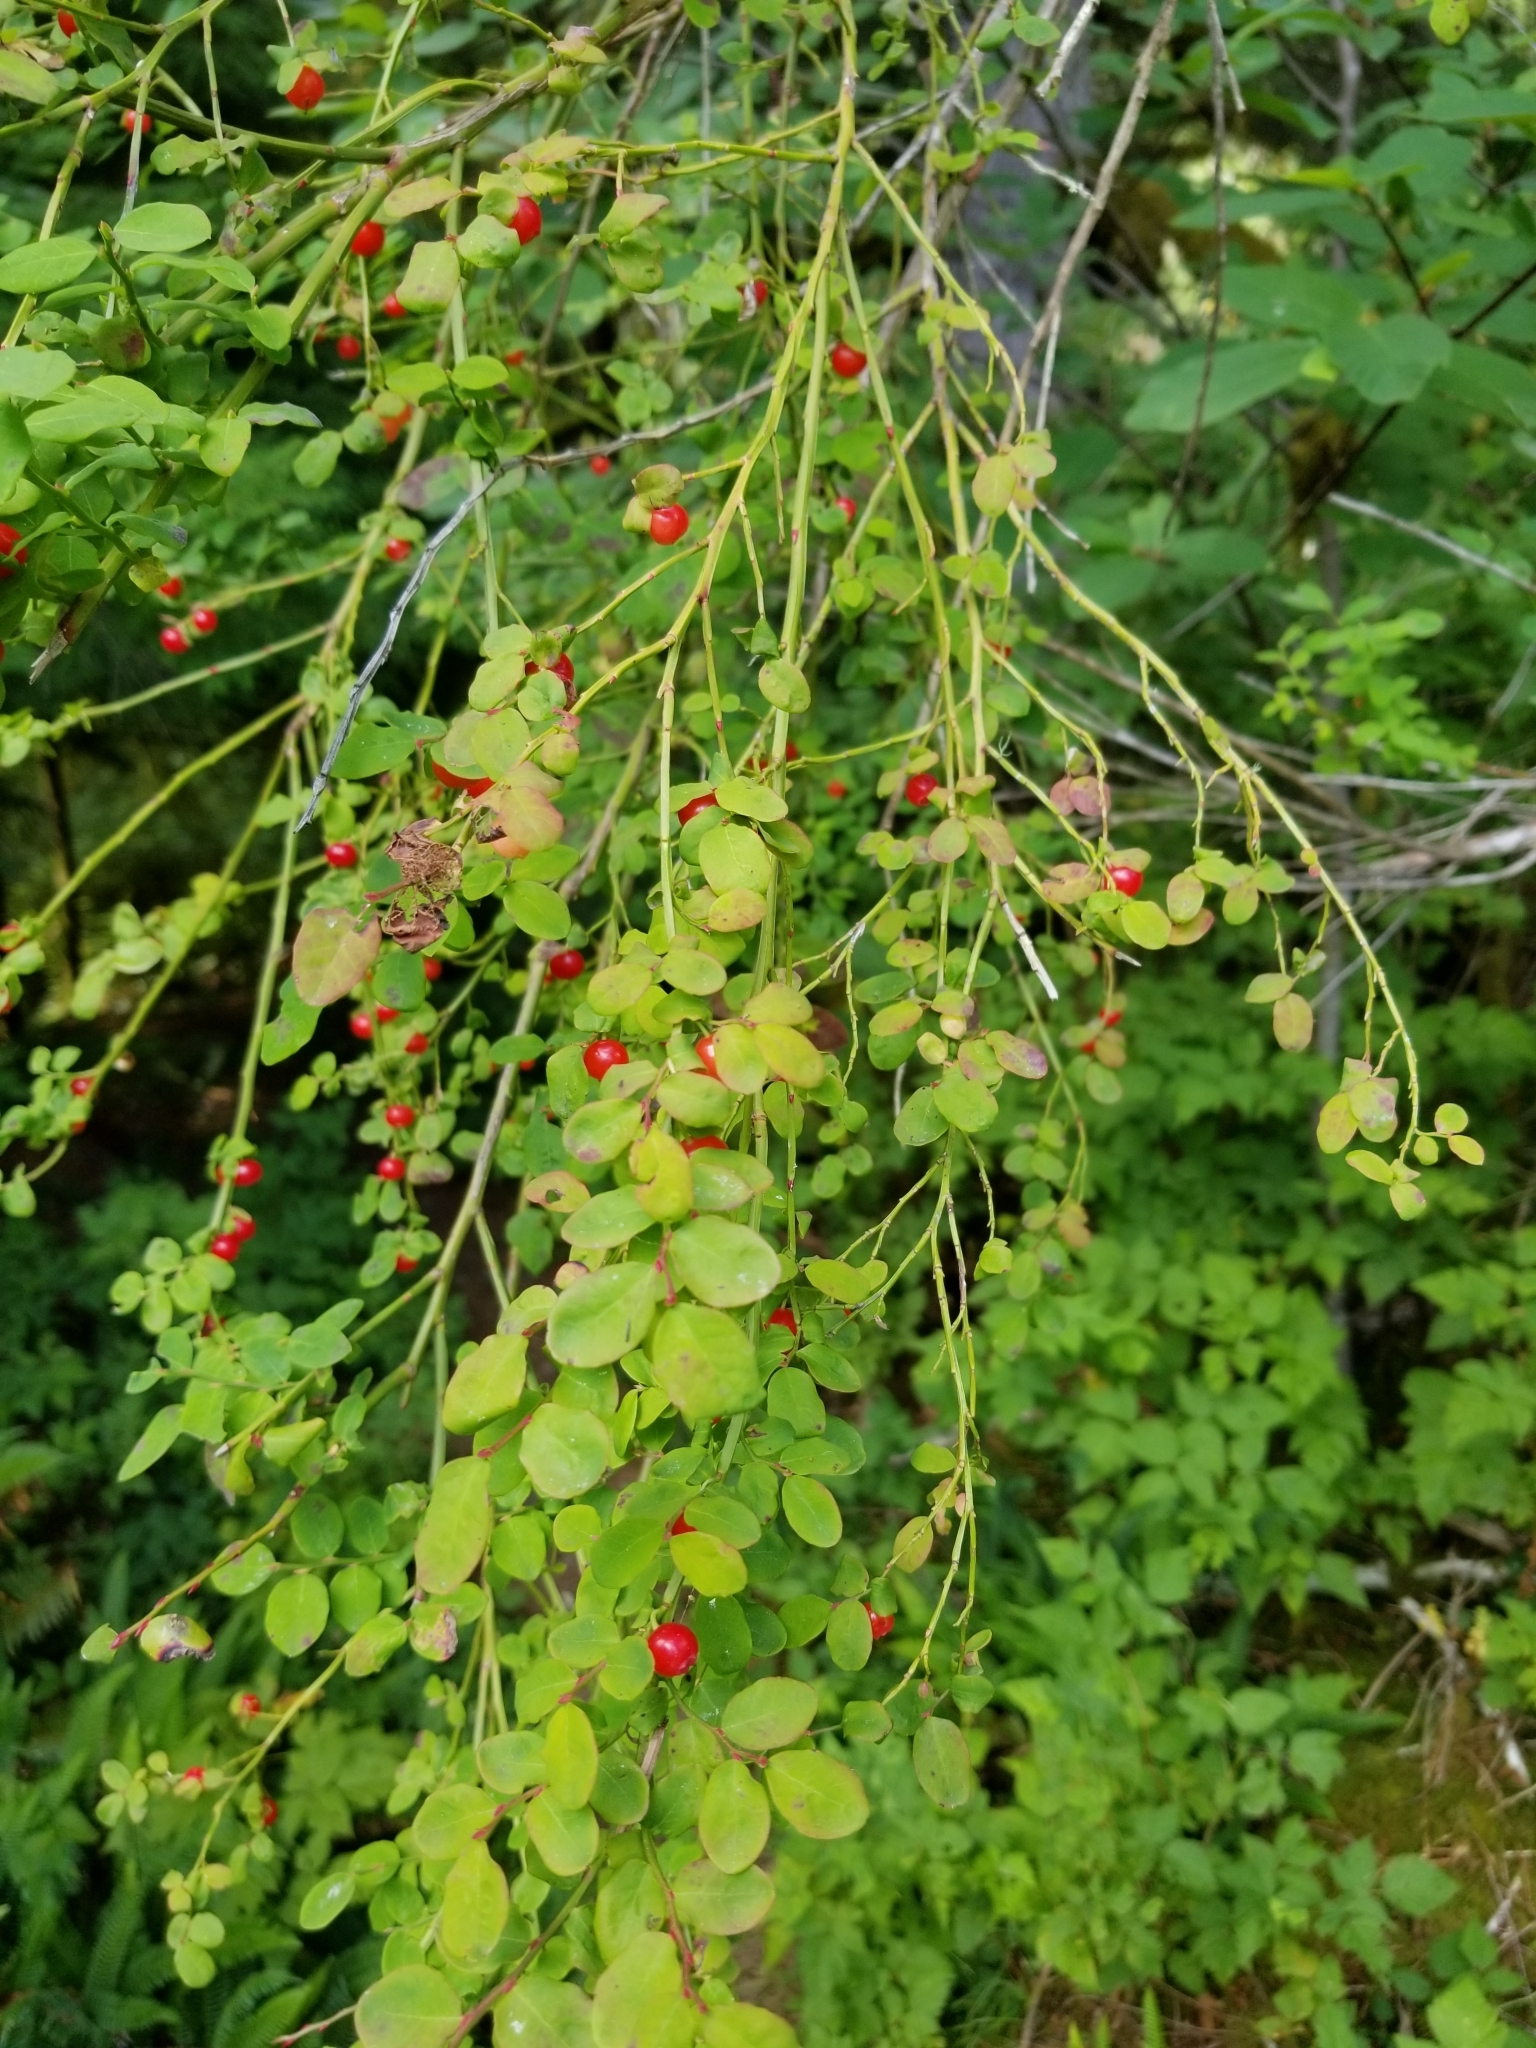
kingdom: Plantae
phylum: Tracheophyta
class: Magnoliopsida
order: Ericales
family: Ericaceae
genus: Vaccinium
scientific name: Vaccinium parvifolium
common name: Red-huckleberry
